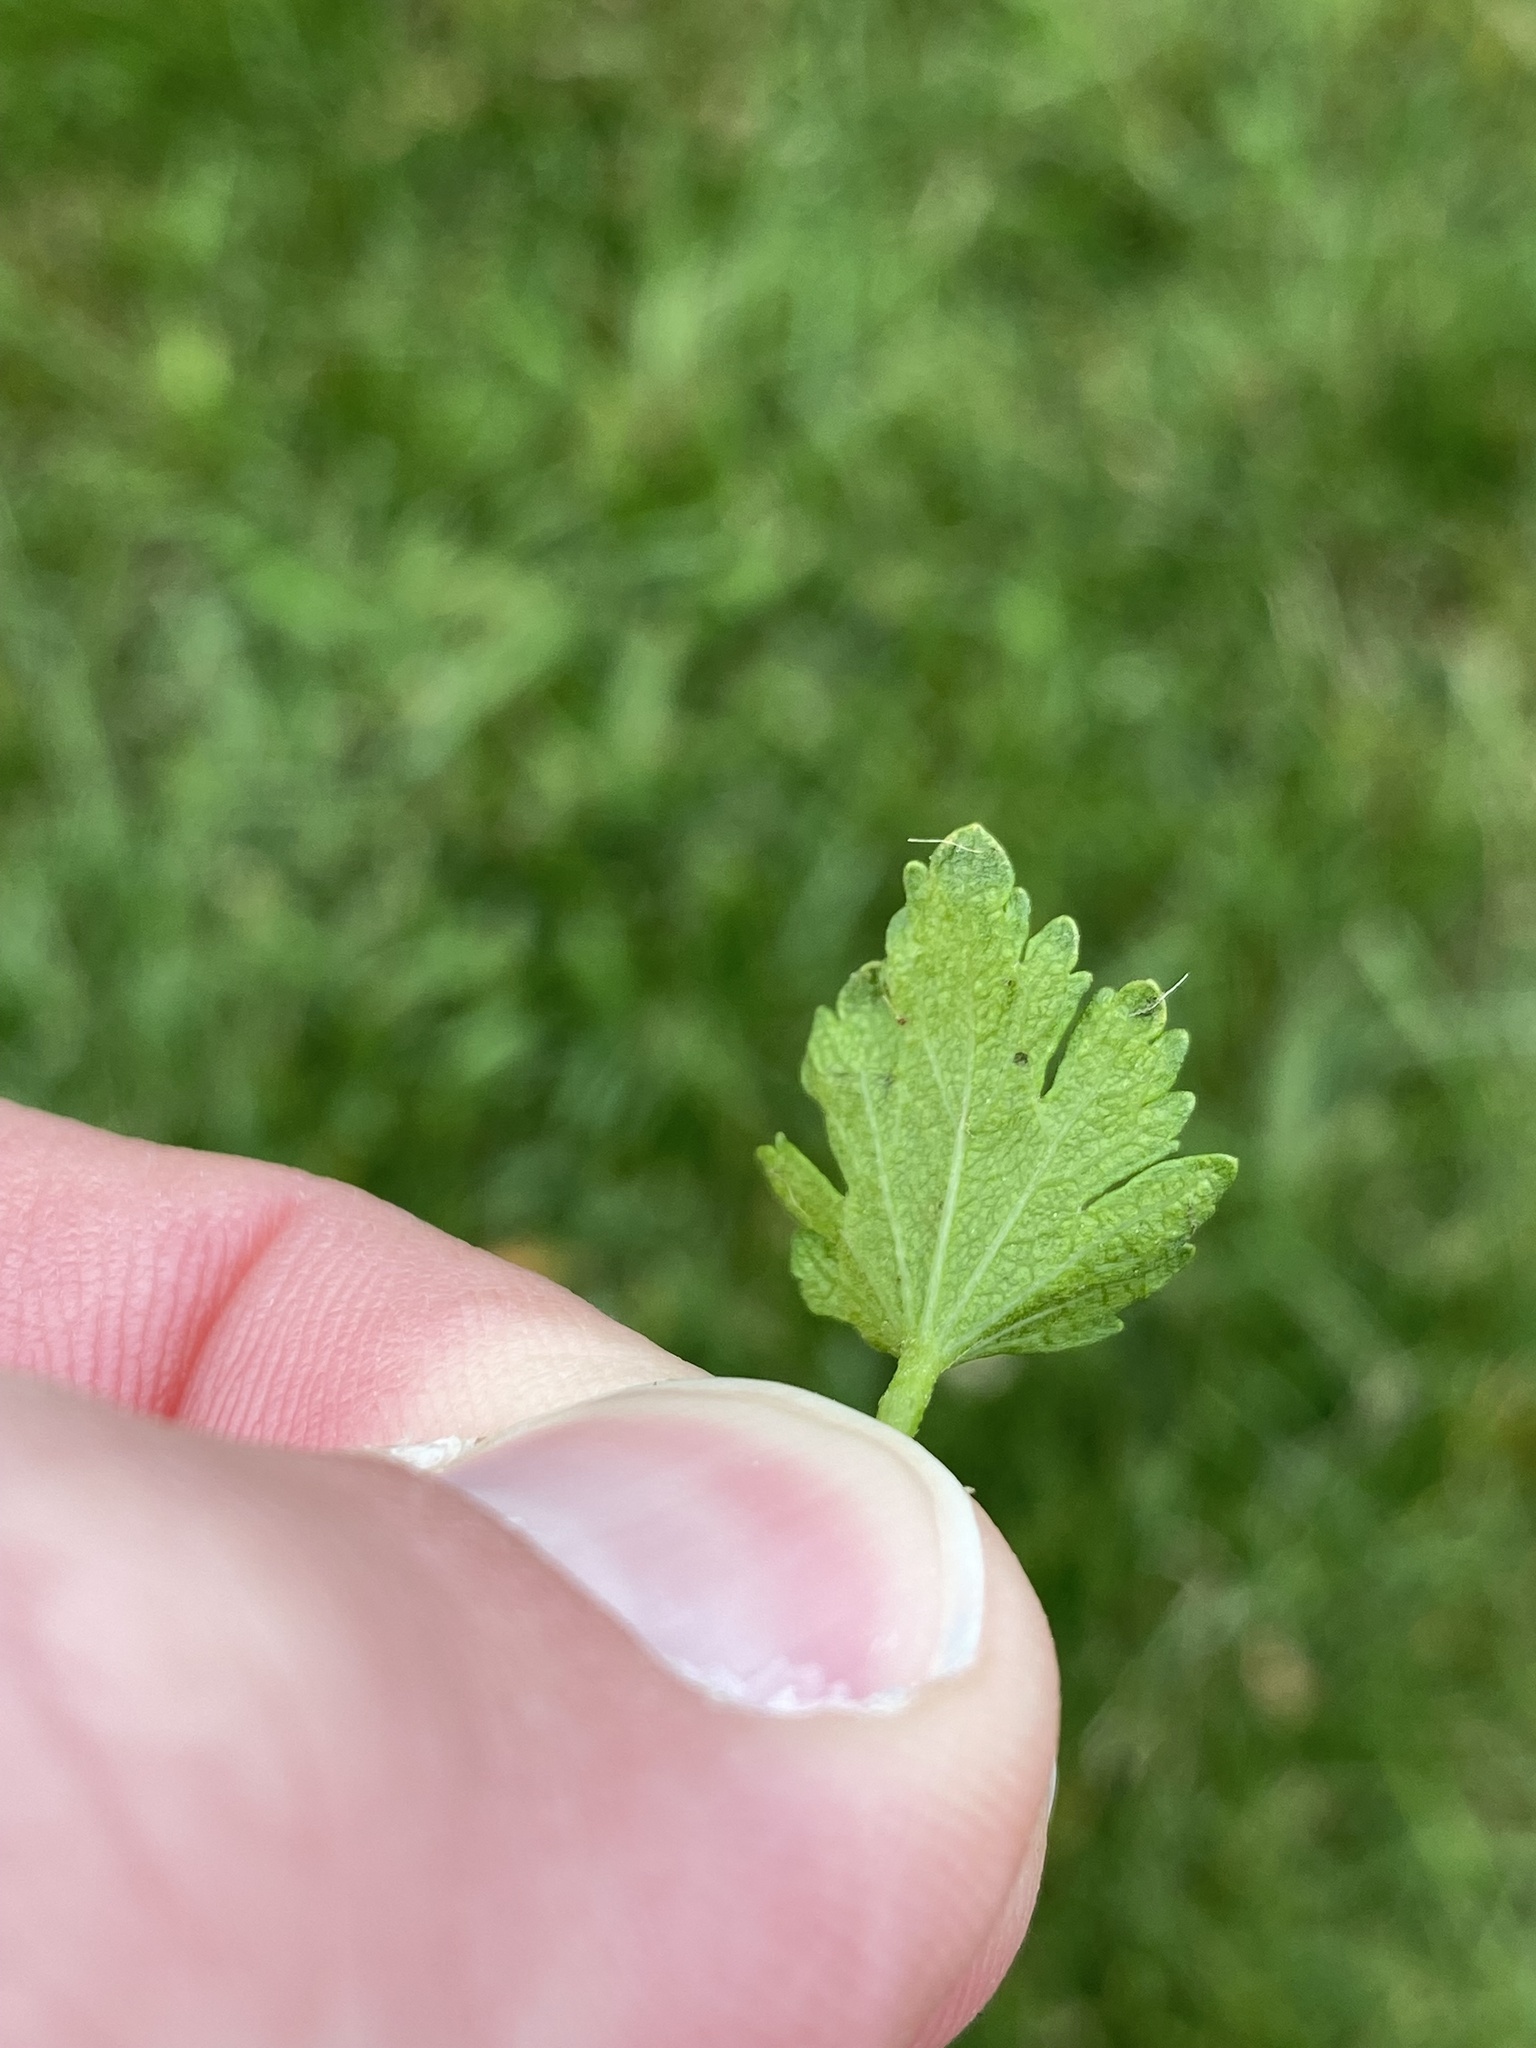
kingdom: Plantae
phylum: Tracheophyta
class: Magnoliopsida
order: Malvales
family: Malvaceae
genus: Modiola
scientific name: Modiola caroliniana
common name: Carolina bristlemallow
